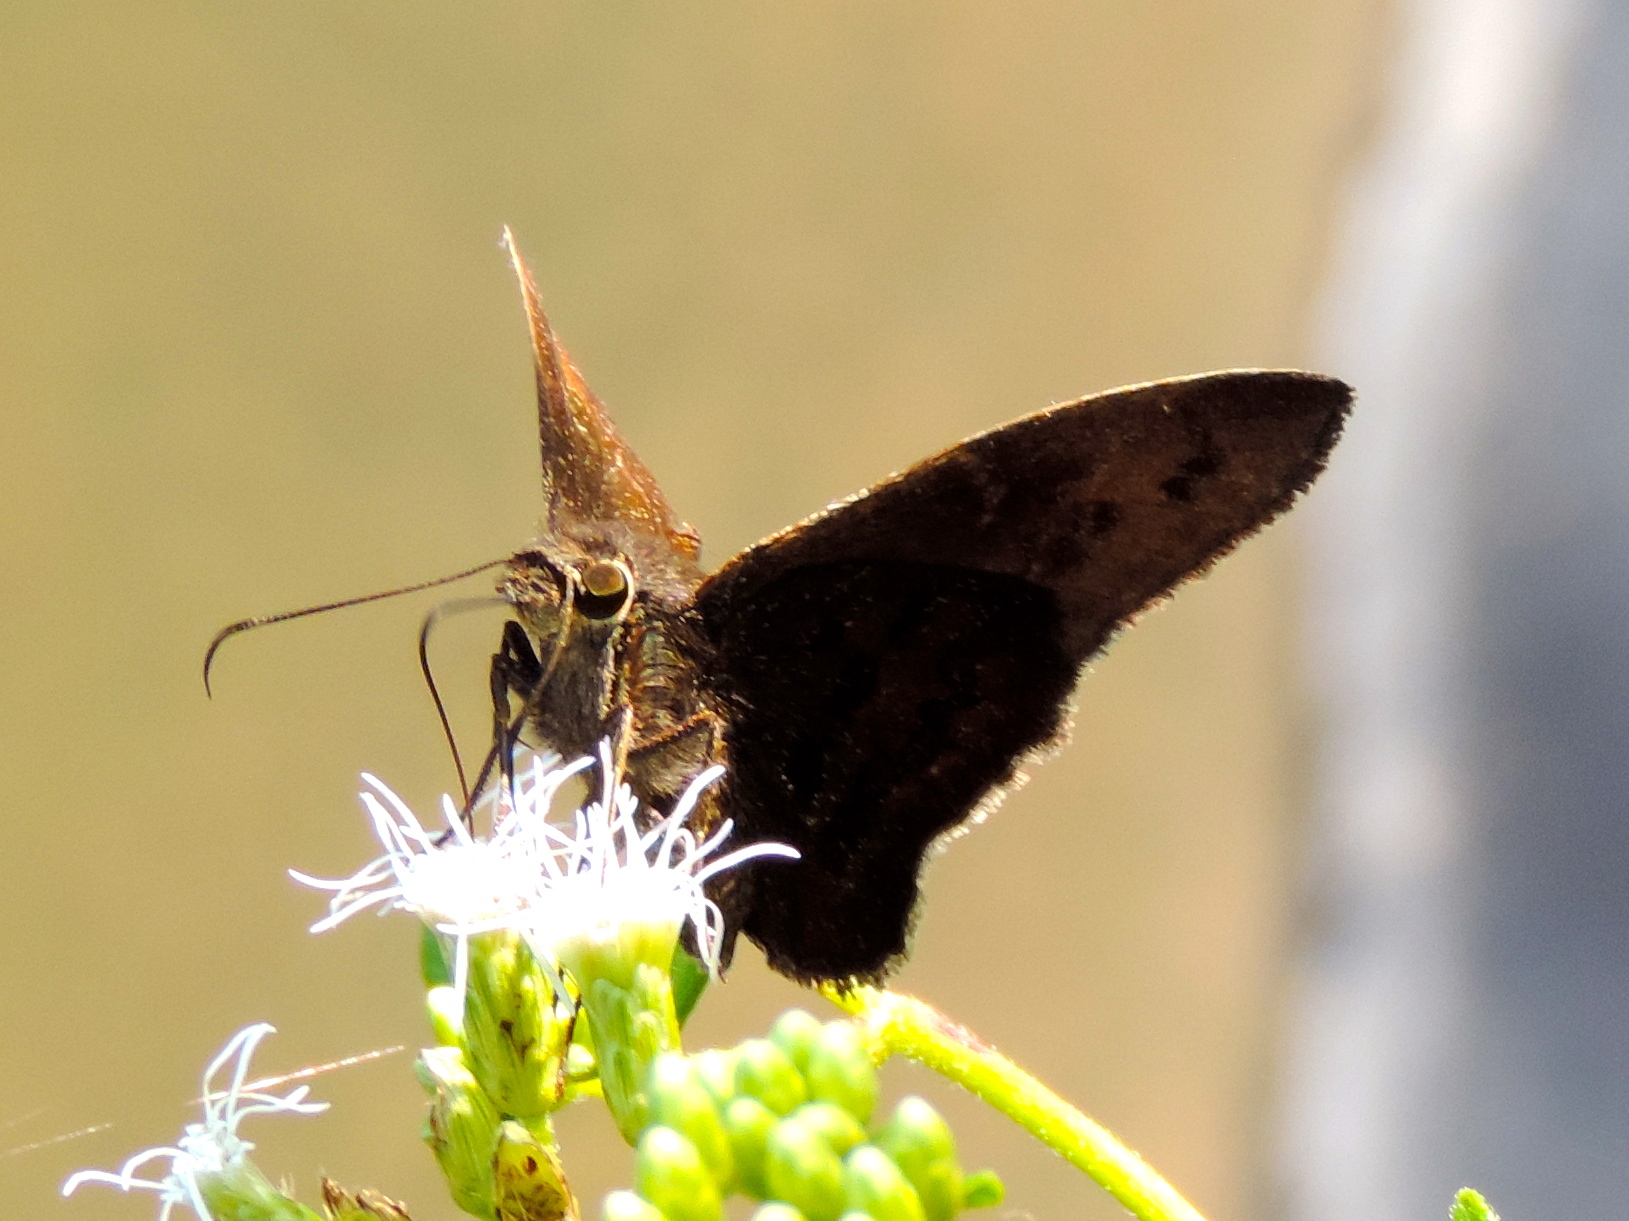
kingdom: Animalia
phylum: Arthropoda
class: Insecta
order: Lepidoptera
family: Hesperiidae
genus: Achalarus
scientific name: Achalarus Murgaria jalapus
